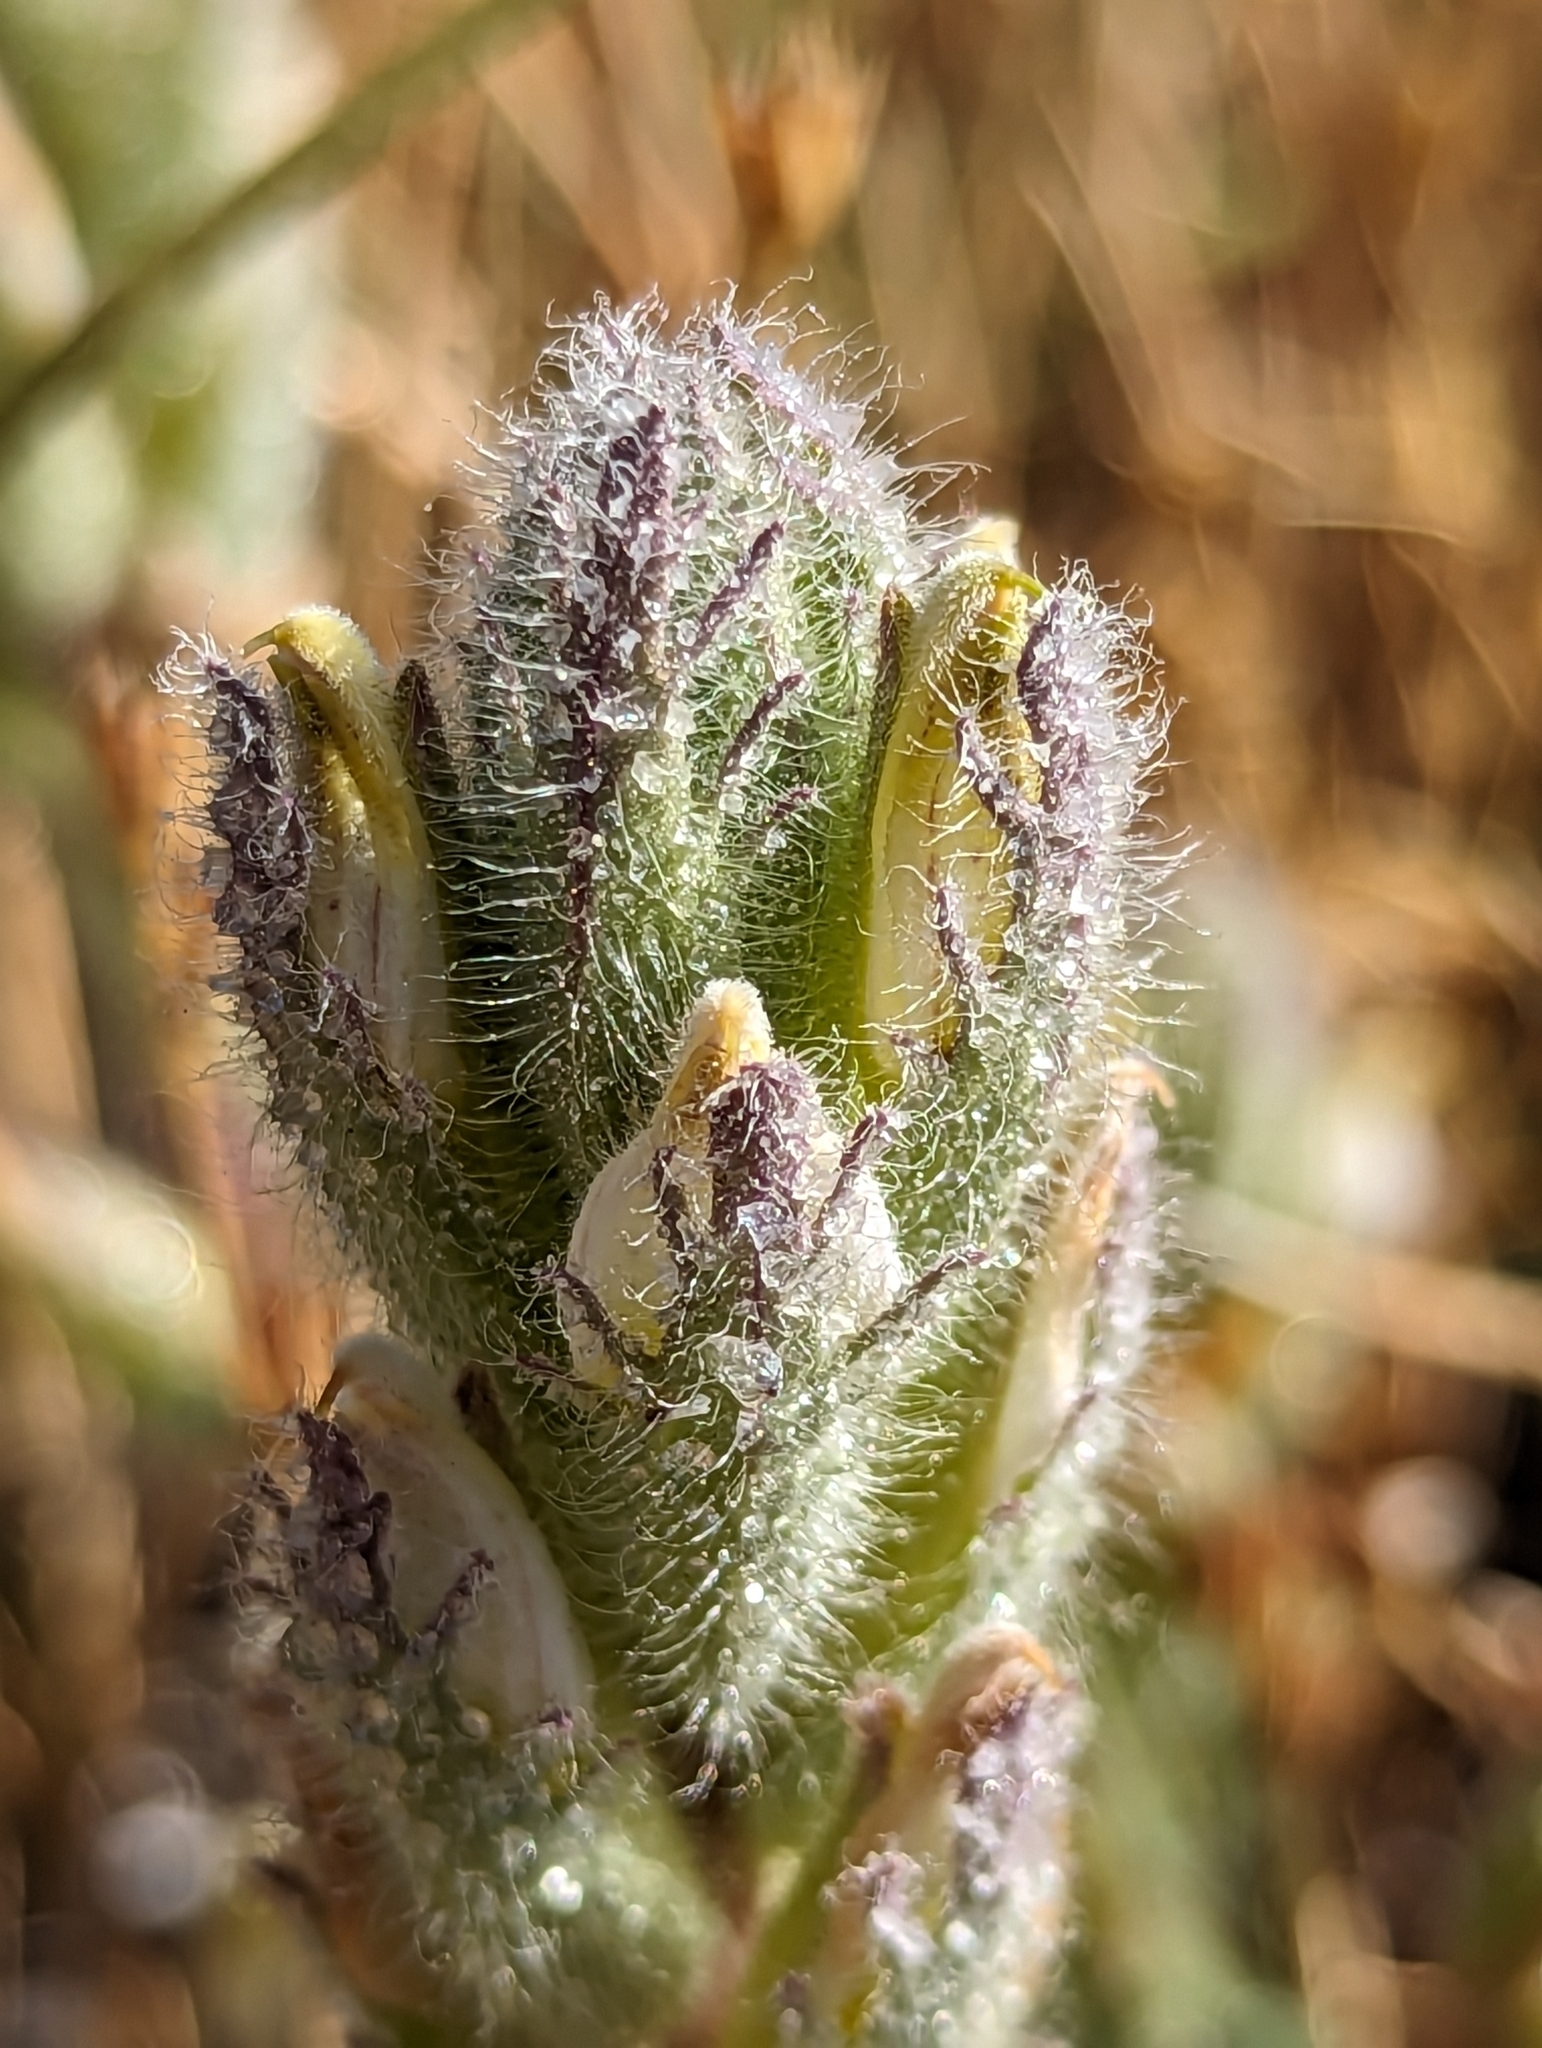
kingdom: Plantae
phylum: Tracheophyta
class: Magnoliopsida
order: Lamiales
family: Orobanchaceae
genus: Chloropyron
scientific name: Chloropyron molle
